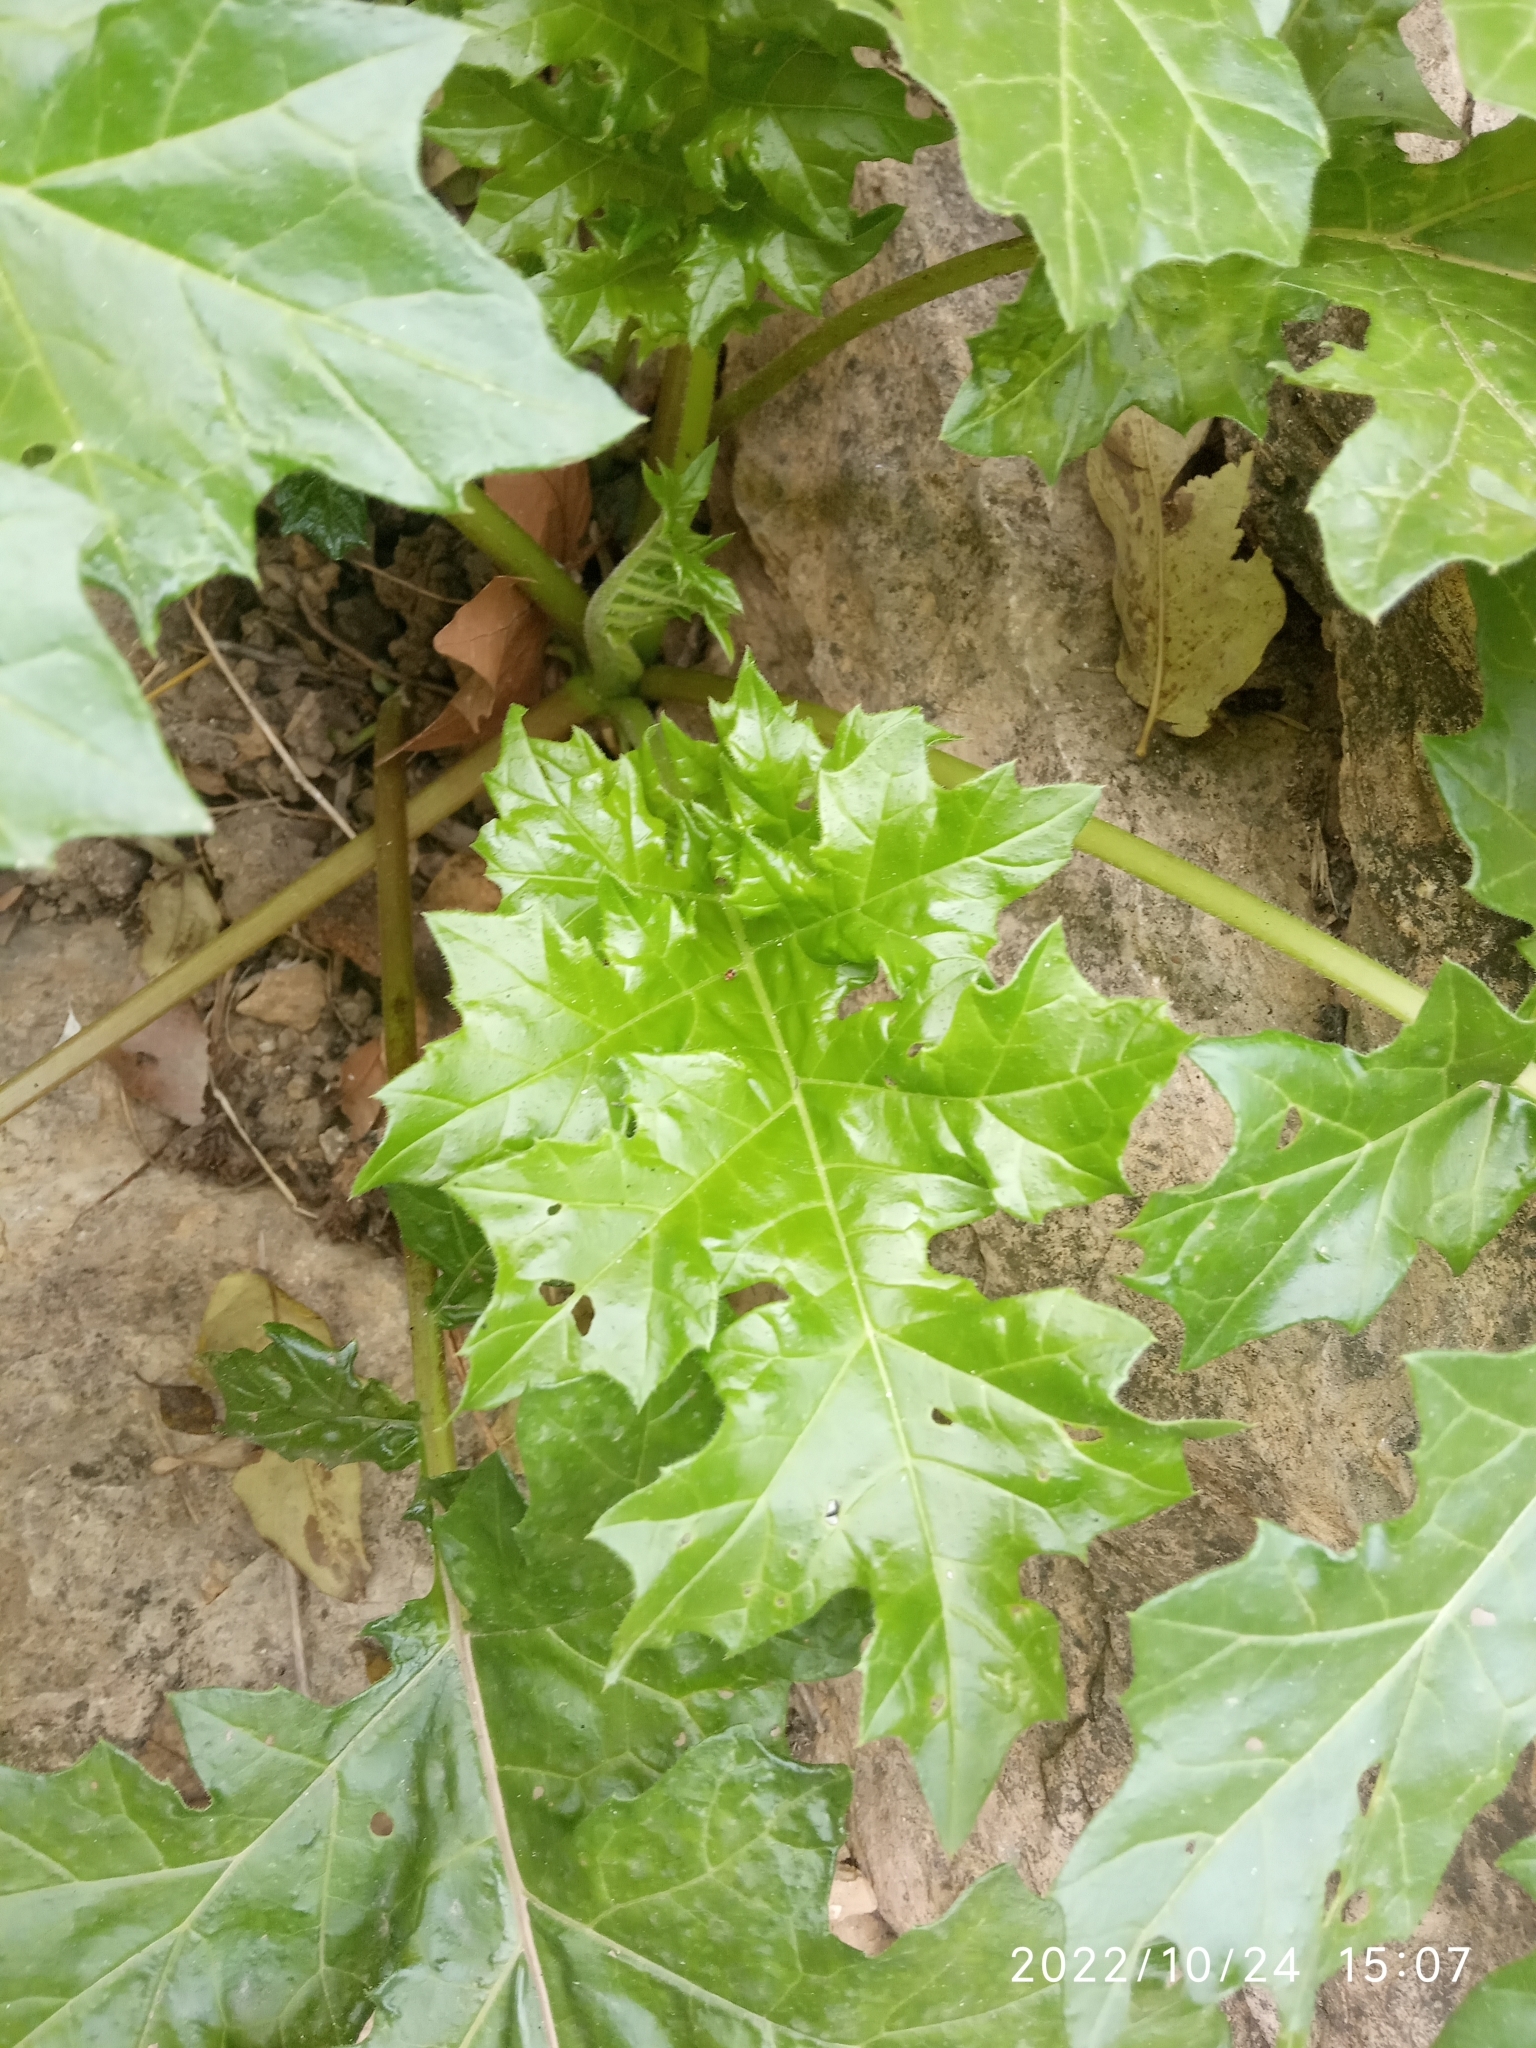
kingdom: Plantae
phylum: Tracheophyta
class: Magnoliopsida
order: Lamiales
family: Acanthaceae
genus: Acanthus
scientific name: Acanthus mollis
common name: Bear's-breech
